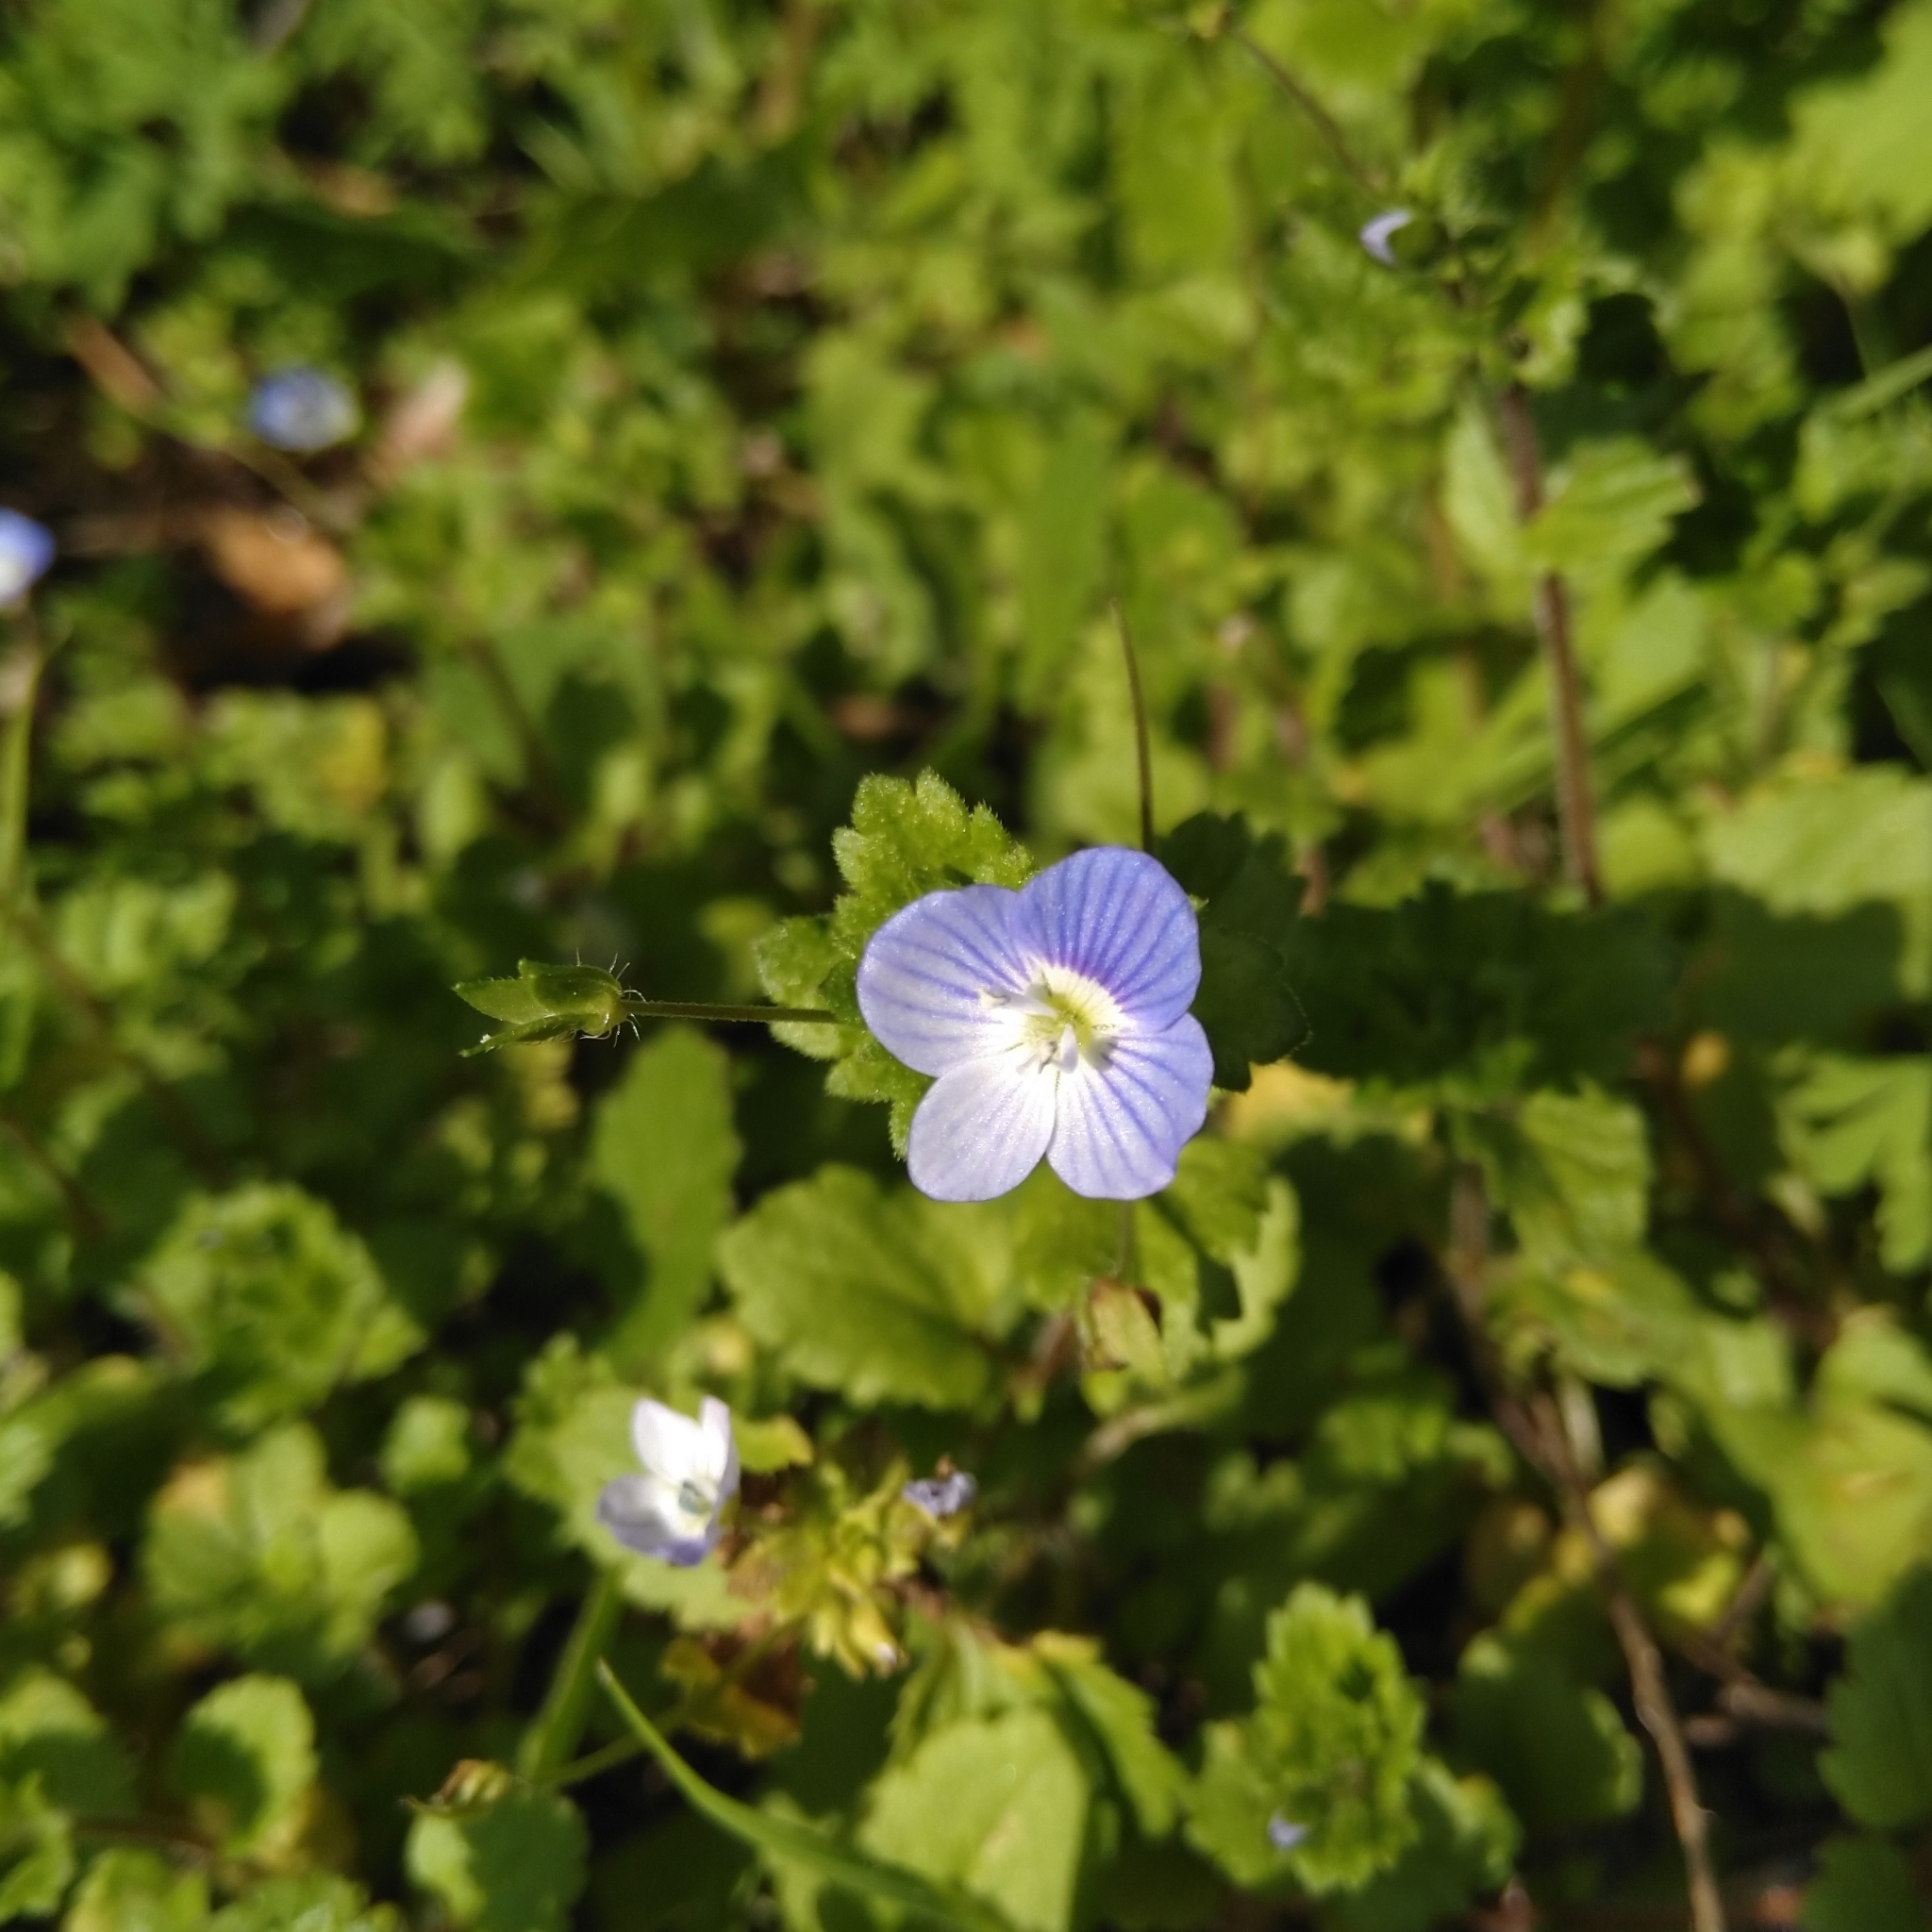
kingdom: Plantae
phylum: Tracheophyta
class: Magnoliopsida
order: Lamiales
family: Plantaginaceae
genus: Veronica
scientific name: Veronica persica
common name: Common field-speedwell
